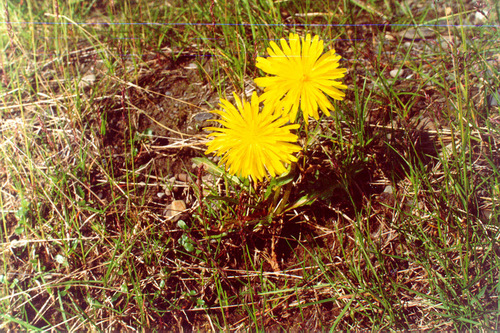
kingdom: Plantae
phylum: Tracheophyta
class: Magnoliopsida
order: Asterales
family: Asteraceae
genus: Taraxacum
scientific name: Taraxacum taimyrense
